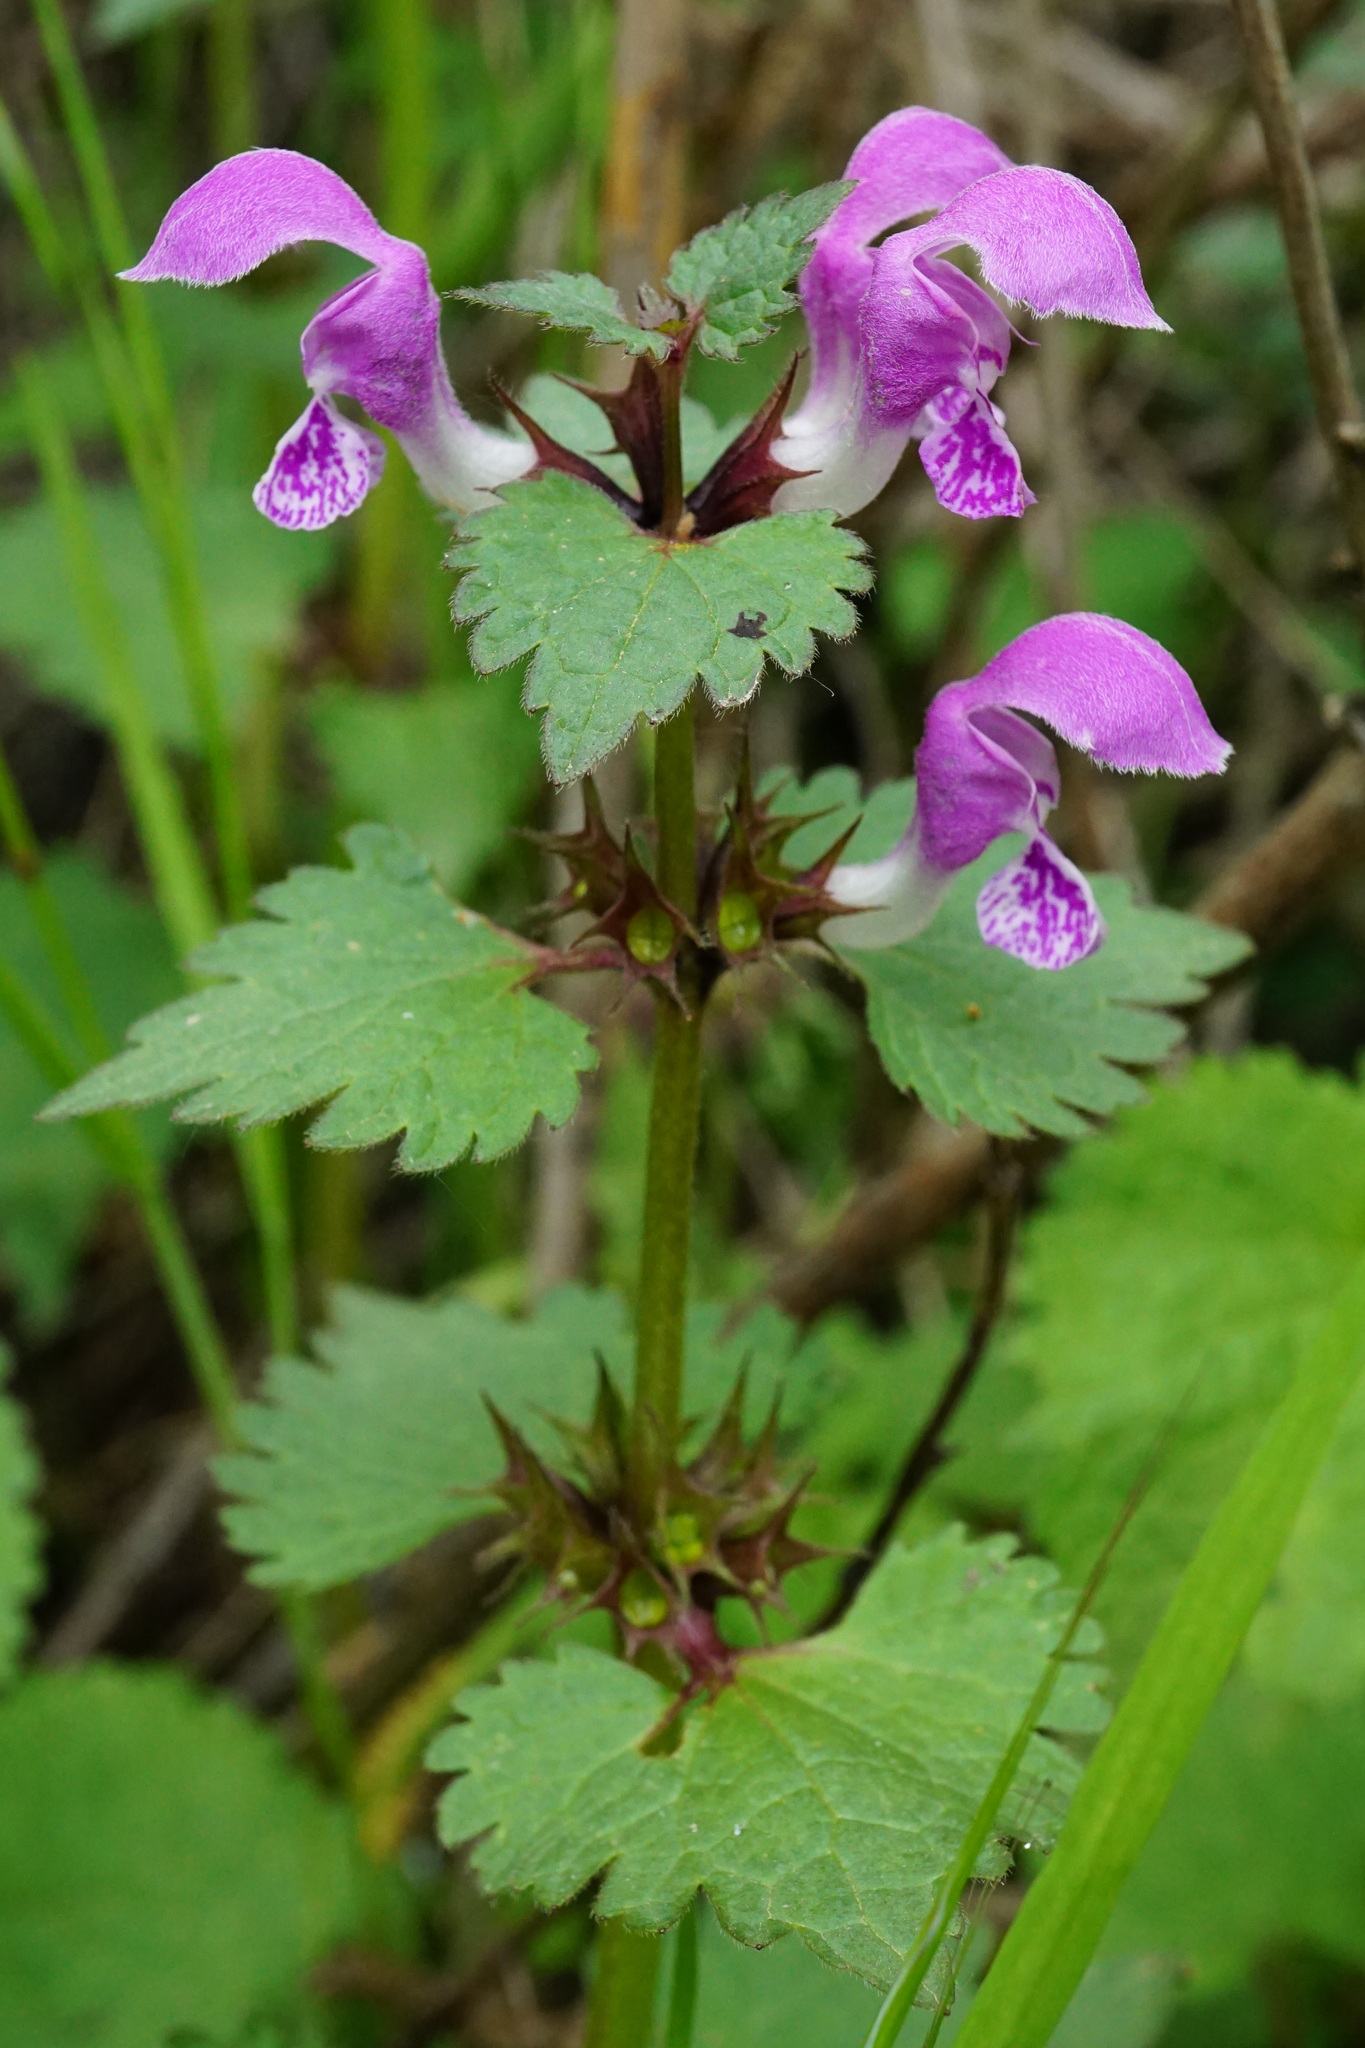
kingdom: Plantae
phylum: Tracheophyta
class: Magnoliopsida
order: Lamiales
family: Lamiaceae
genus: Lamium
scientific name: Lamium maculatum
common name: Spotted dead-nettle
